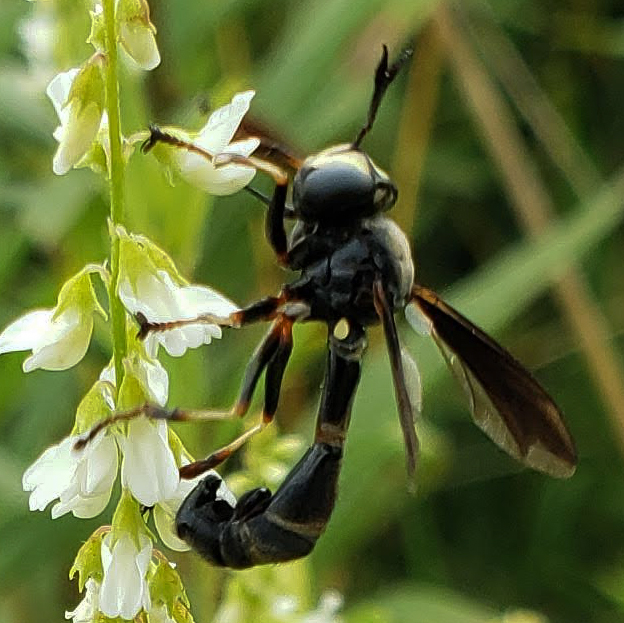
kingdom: Animalia
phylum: Arthropoda
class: Insecta
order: Diptera
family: Conopidae
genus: Physocephala
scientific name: Physocephala tibialis
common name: Common eastern physocephala
